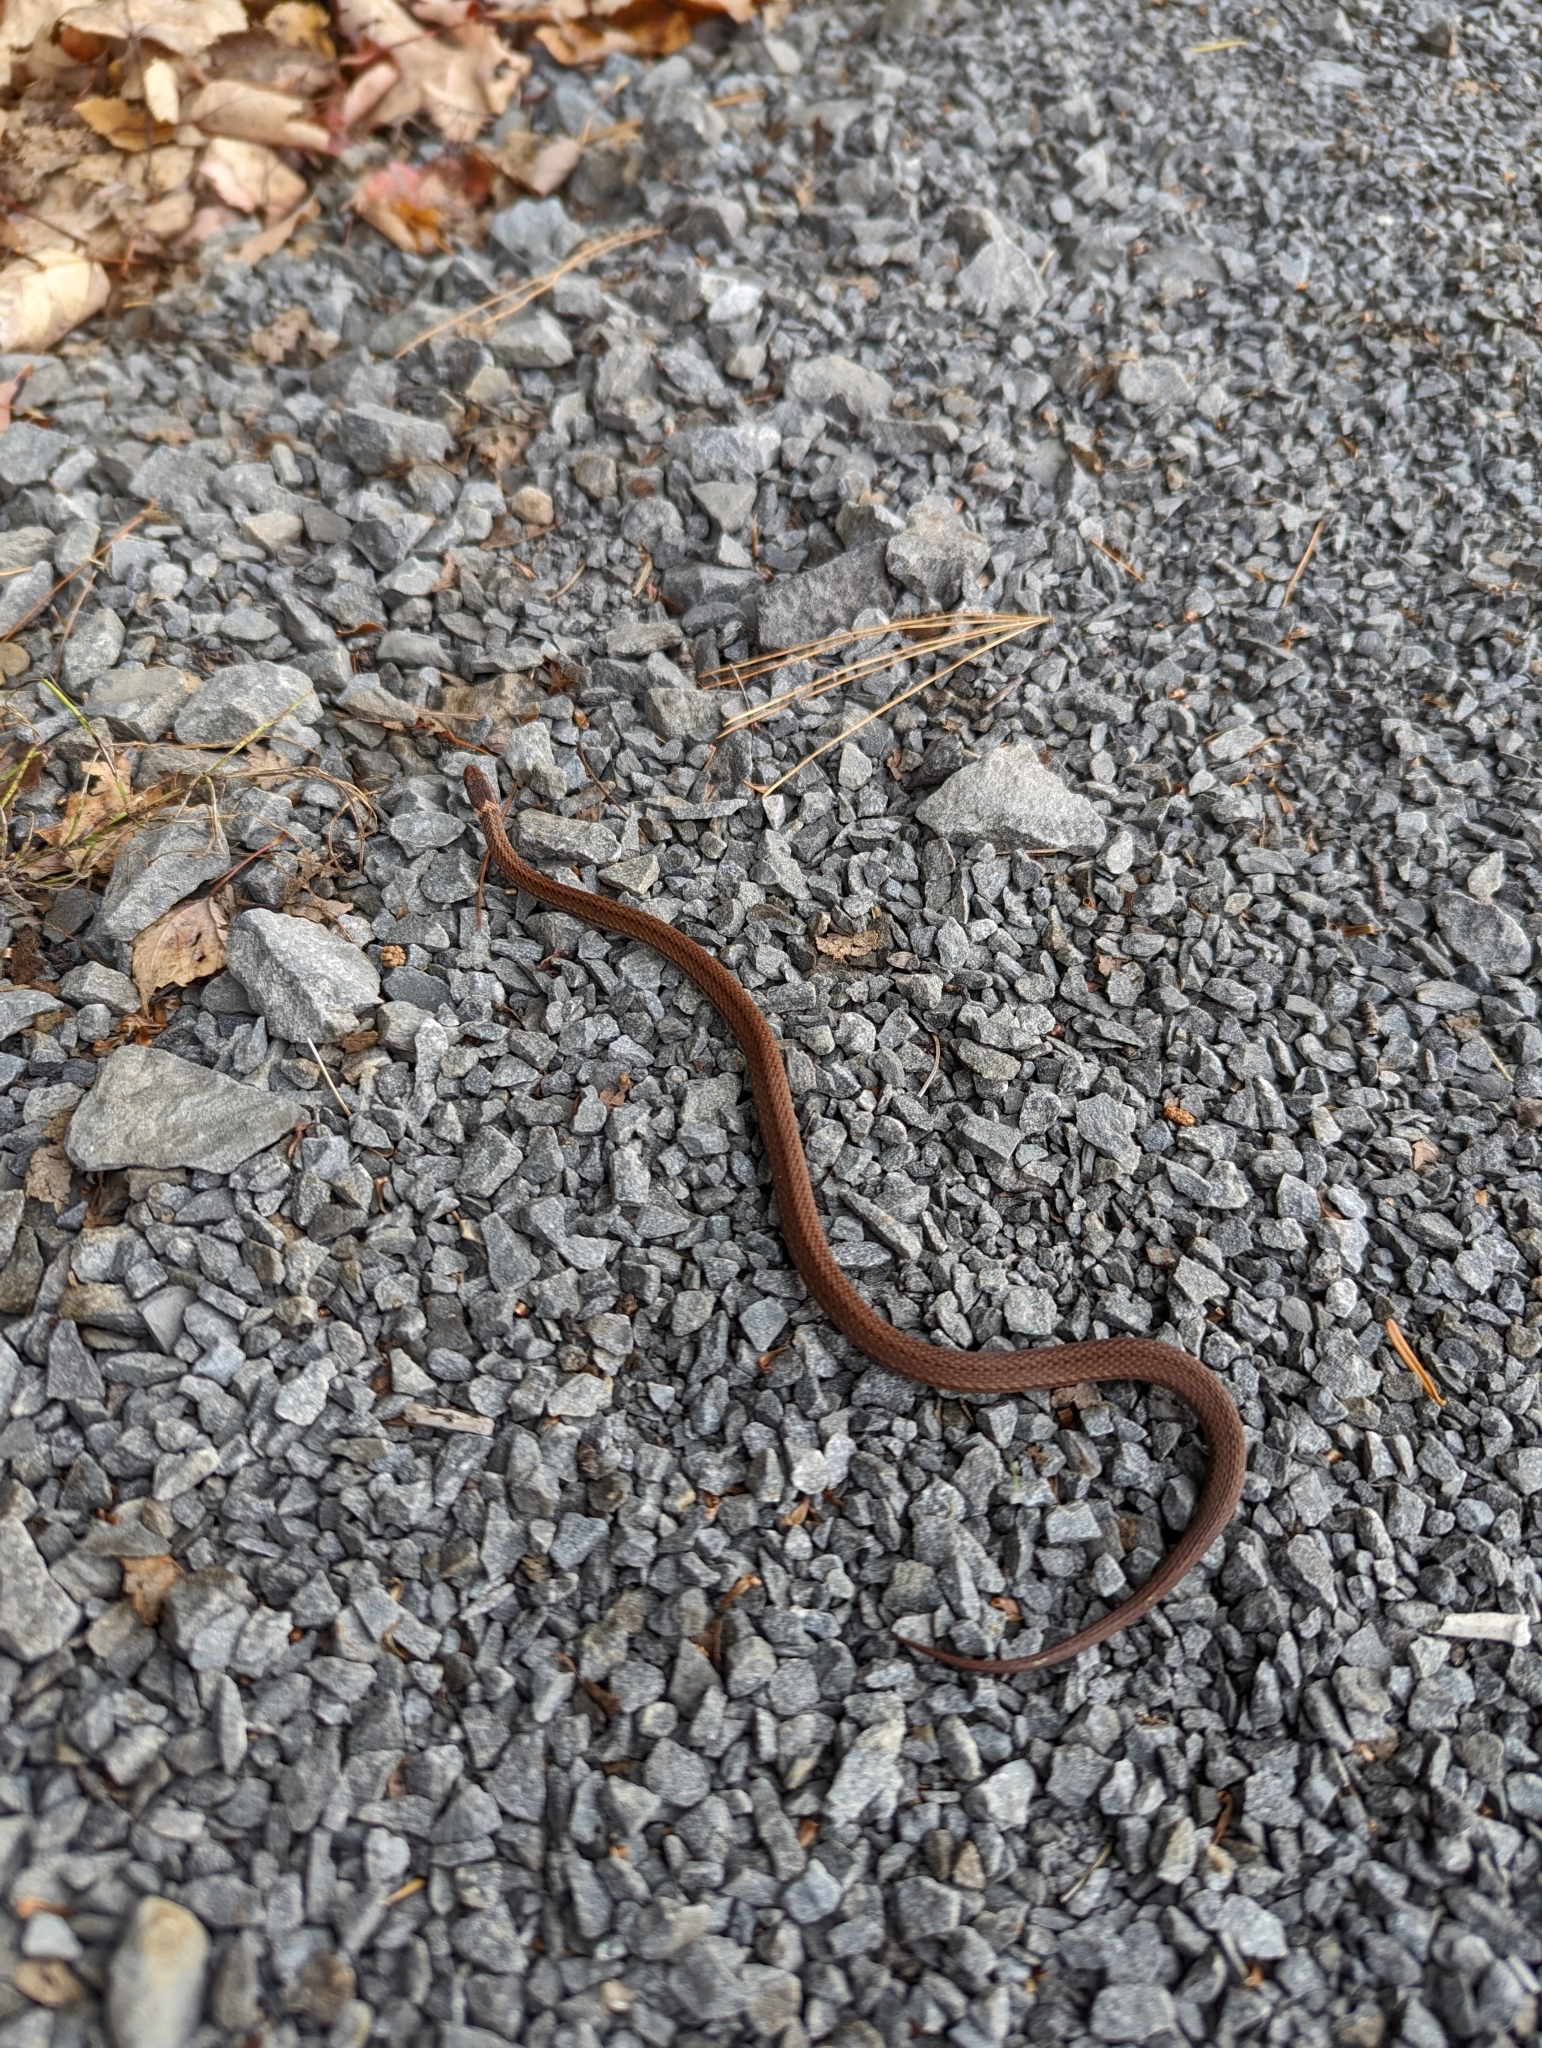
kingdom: Animalia
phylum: Chordata
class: Squamata
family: Colubridae
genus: Storeria
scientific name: Storeria occipitomaculata
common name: Redbelly snake
